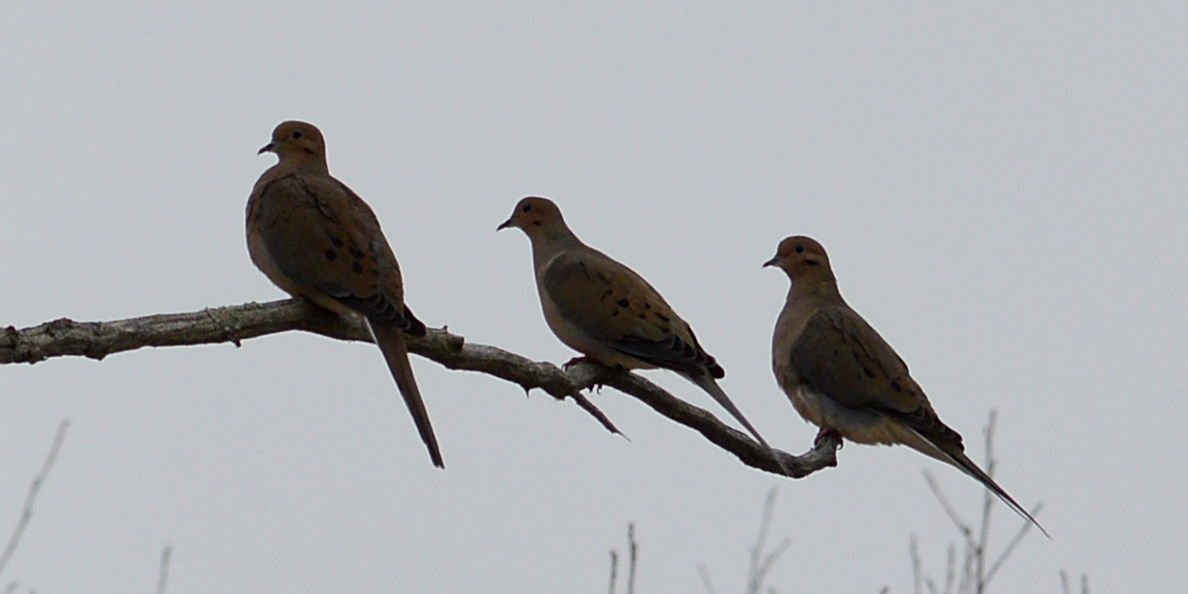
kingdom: Animalia
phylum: Chordata
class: Aves
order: Columbiformes
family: Columbidae
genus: Zenaida
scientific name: Zenaida macroura
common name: Mourning dove
